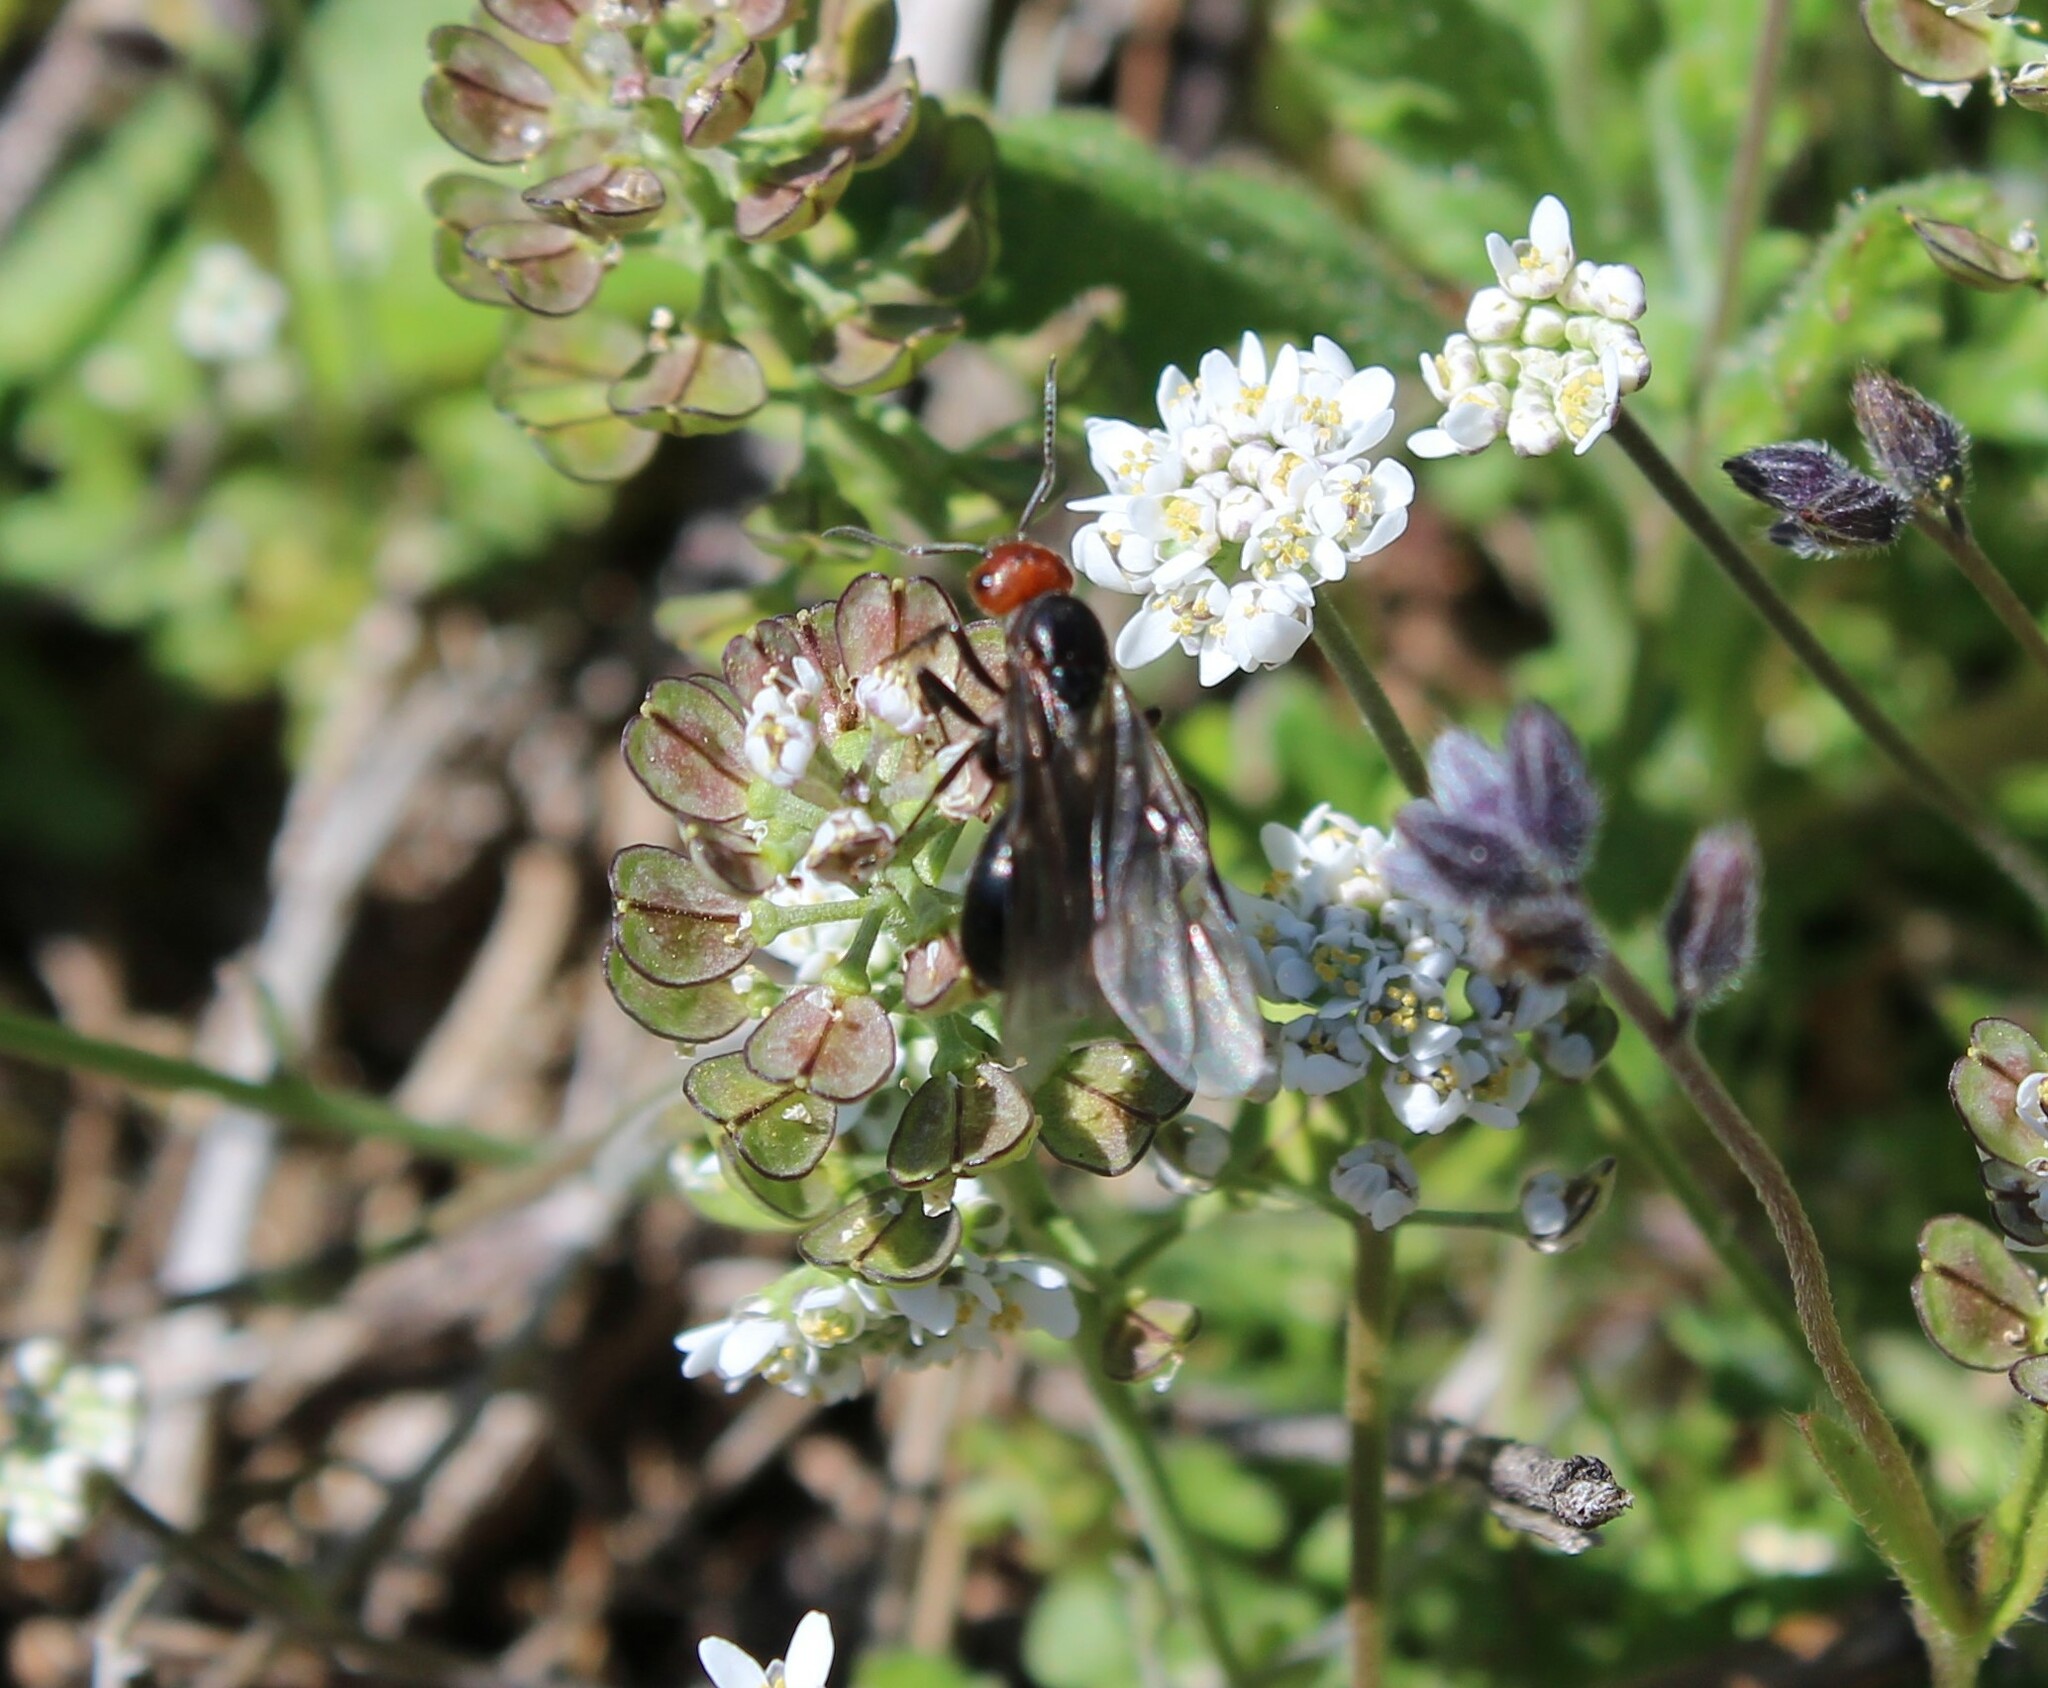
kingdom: Animalia
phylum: Arthropoda
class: Insecta
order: Hymenoptera
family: Formicidae
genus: Formica
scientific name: Formica obscuripes
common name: Western thatching ant
